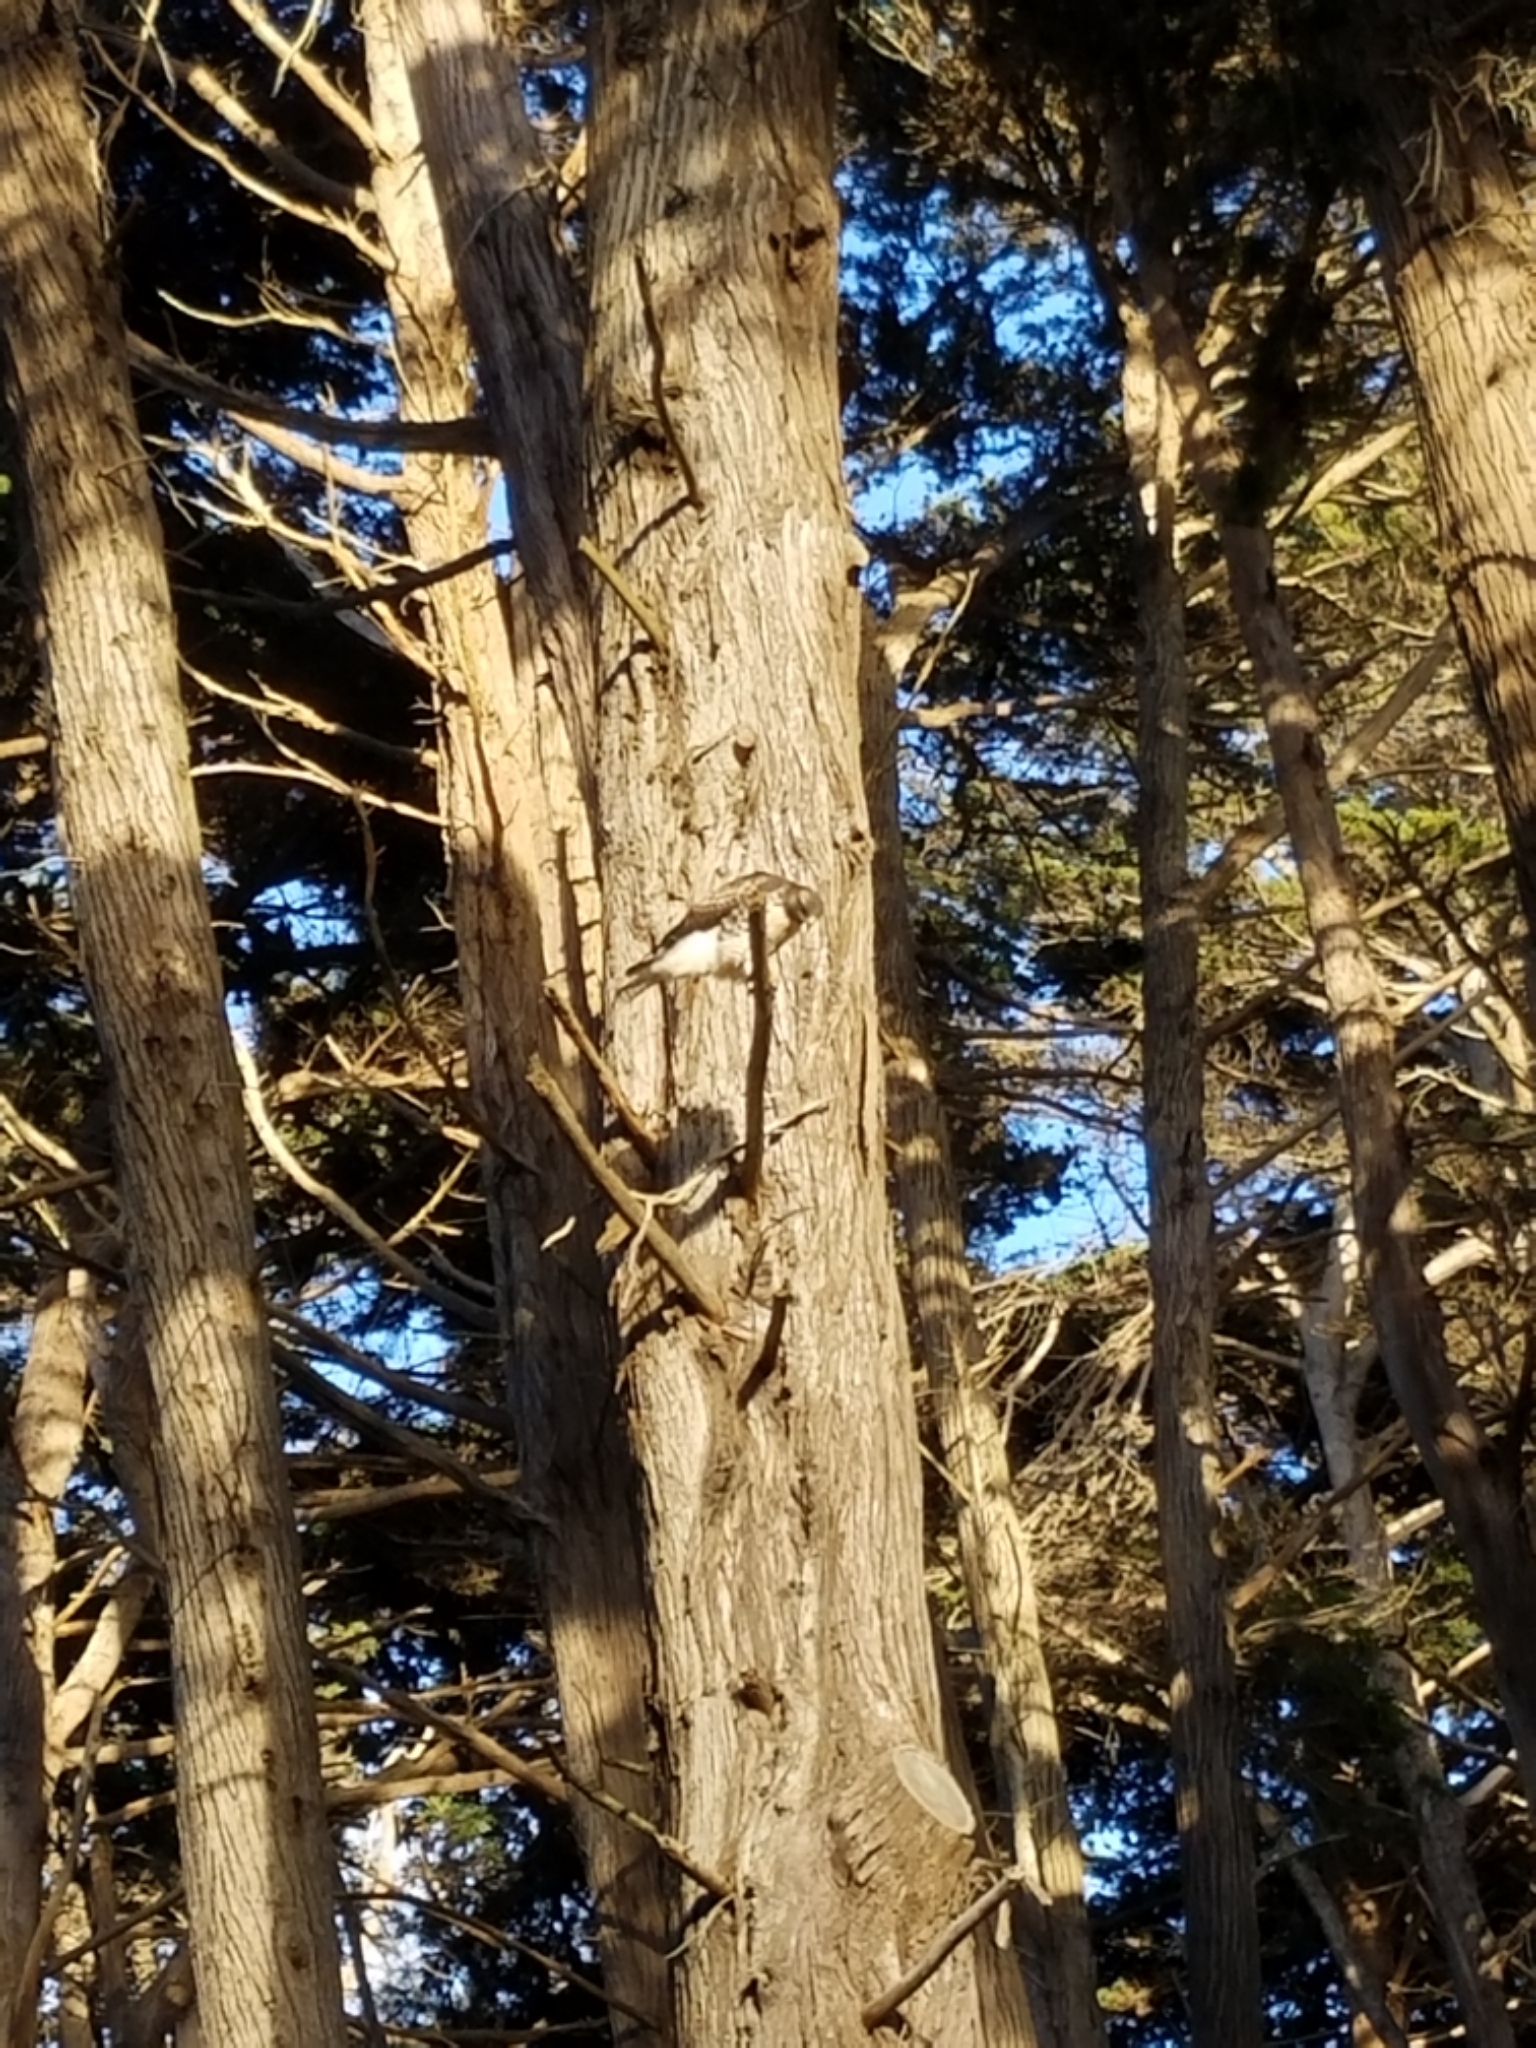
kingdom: Animalia
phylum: Chordata
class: Aves
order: Accipitriformes
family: Accipitridae
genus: Buteo
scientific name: Buteo jamaicensis
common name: Red-tailed hawk
